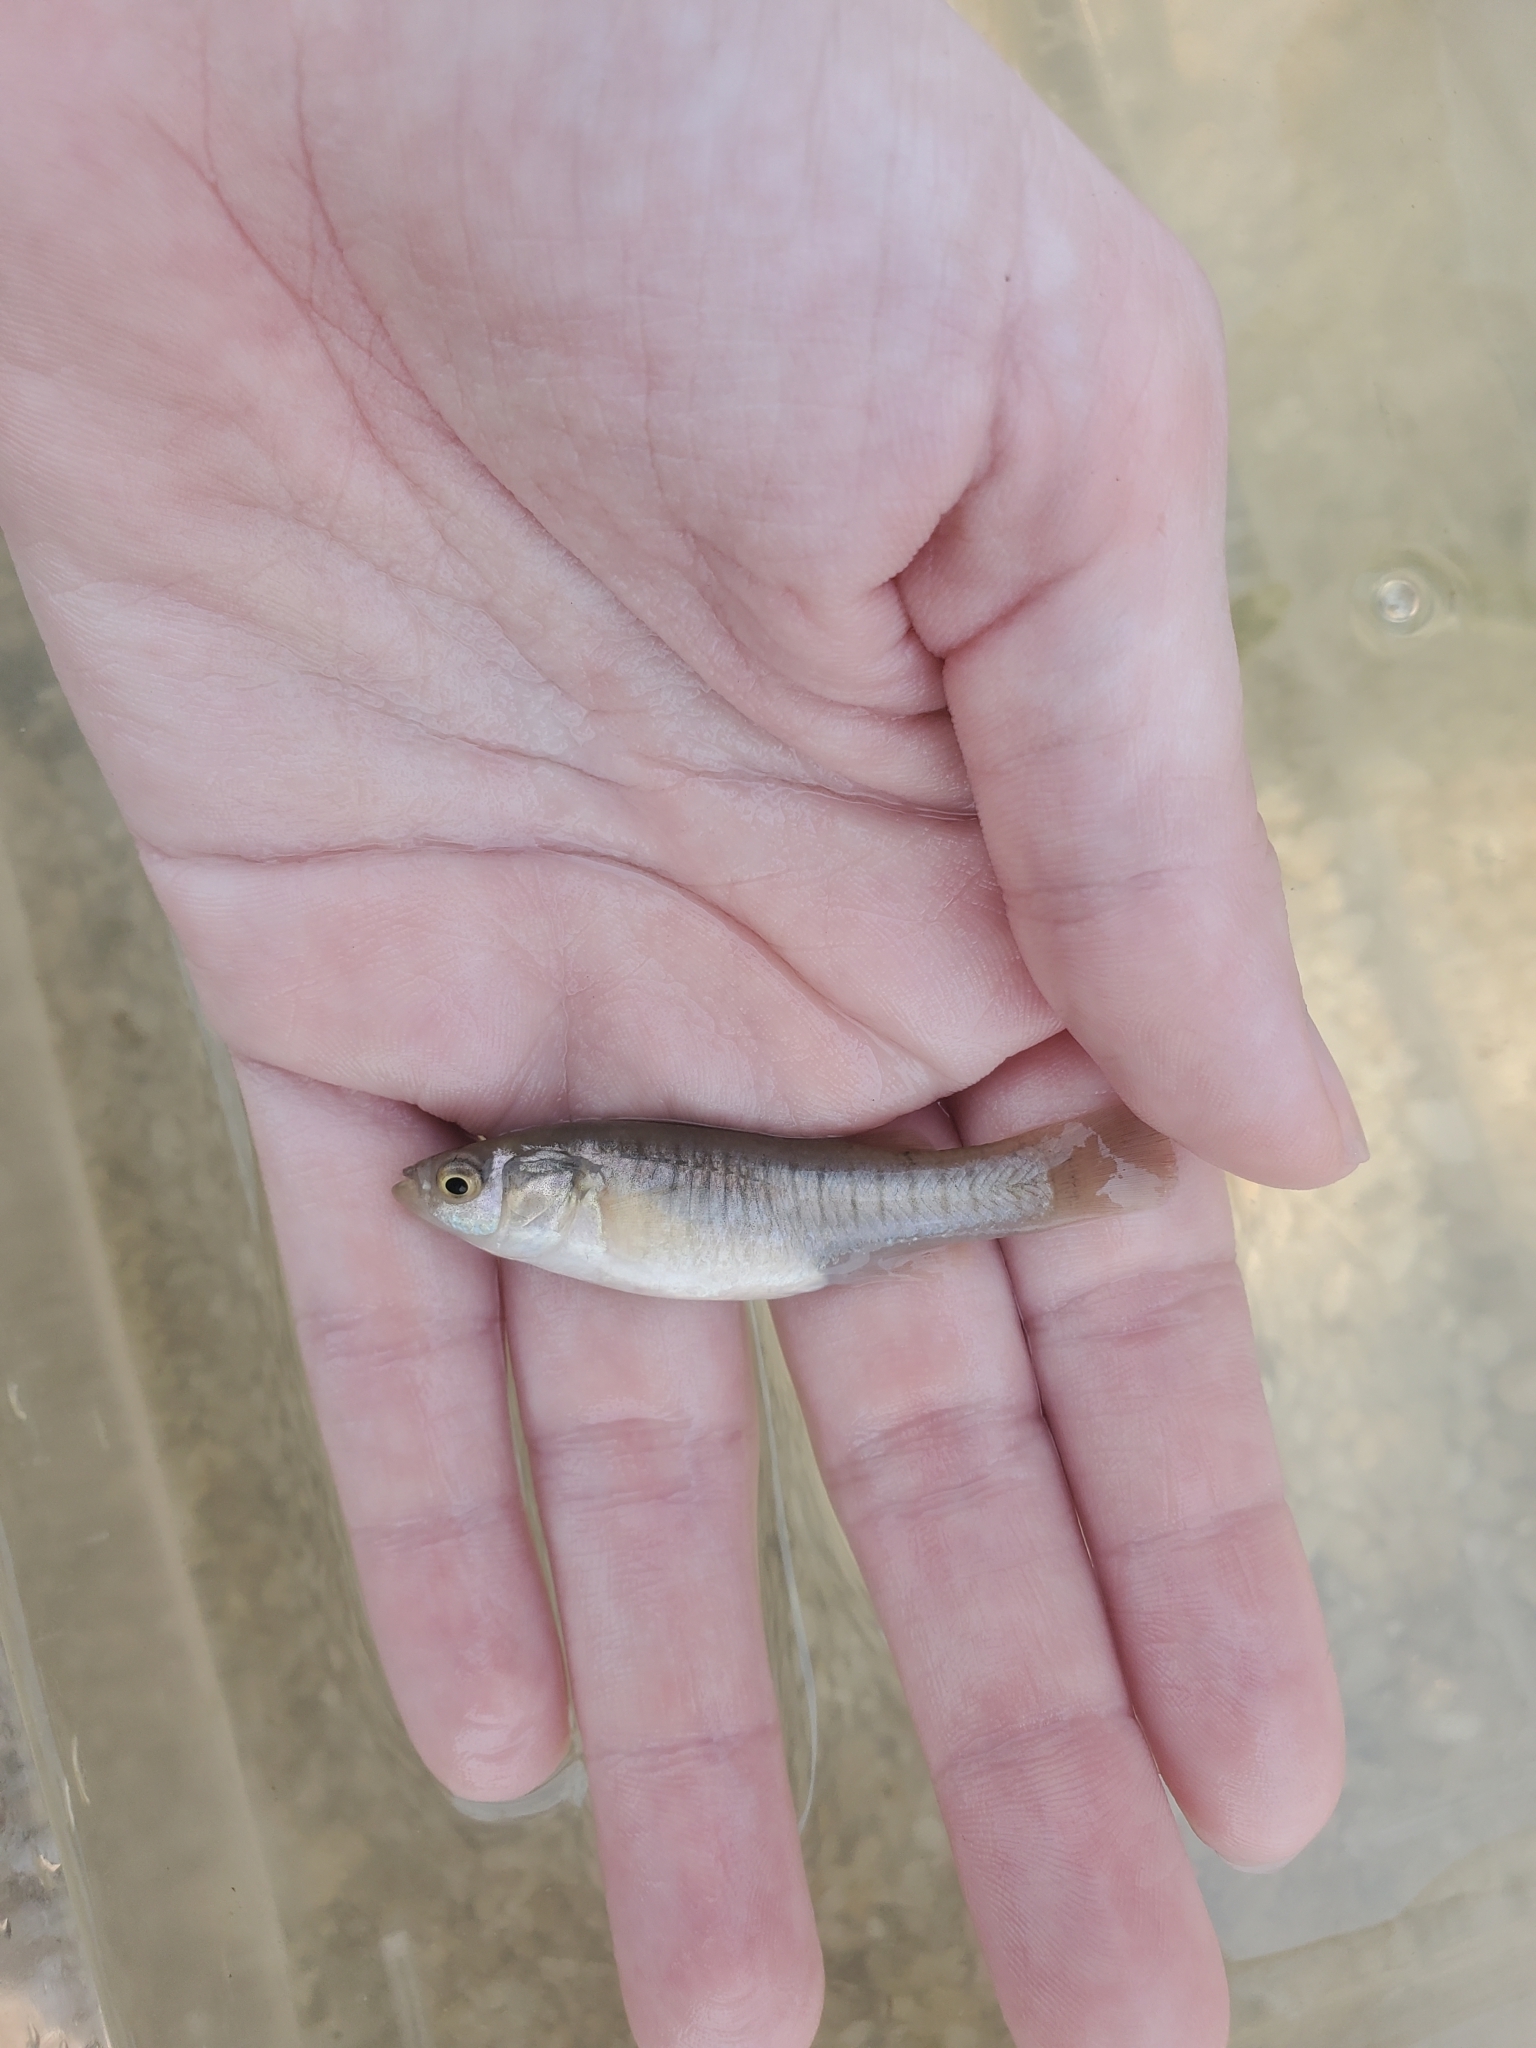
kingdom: Animalia
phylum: Chordata
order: Cyprinodontiformes
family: Fundulidae
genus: Fundulus
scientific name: Fundulus heteroclitus
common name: Mummichog
